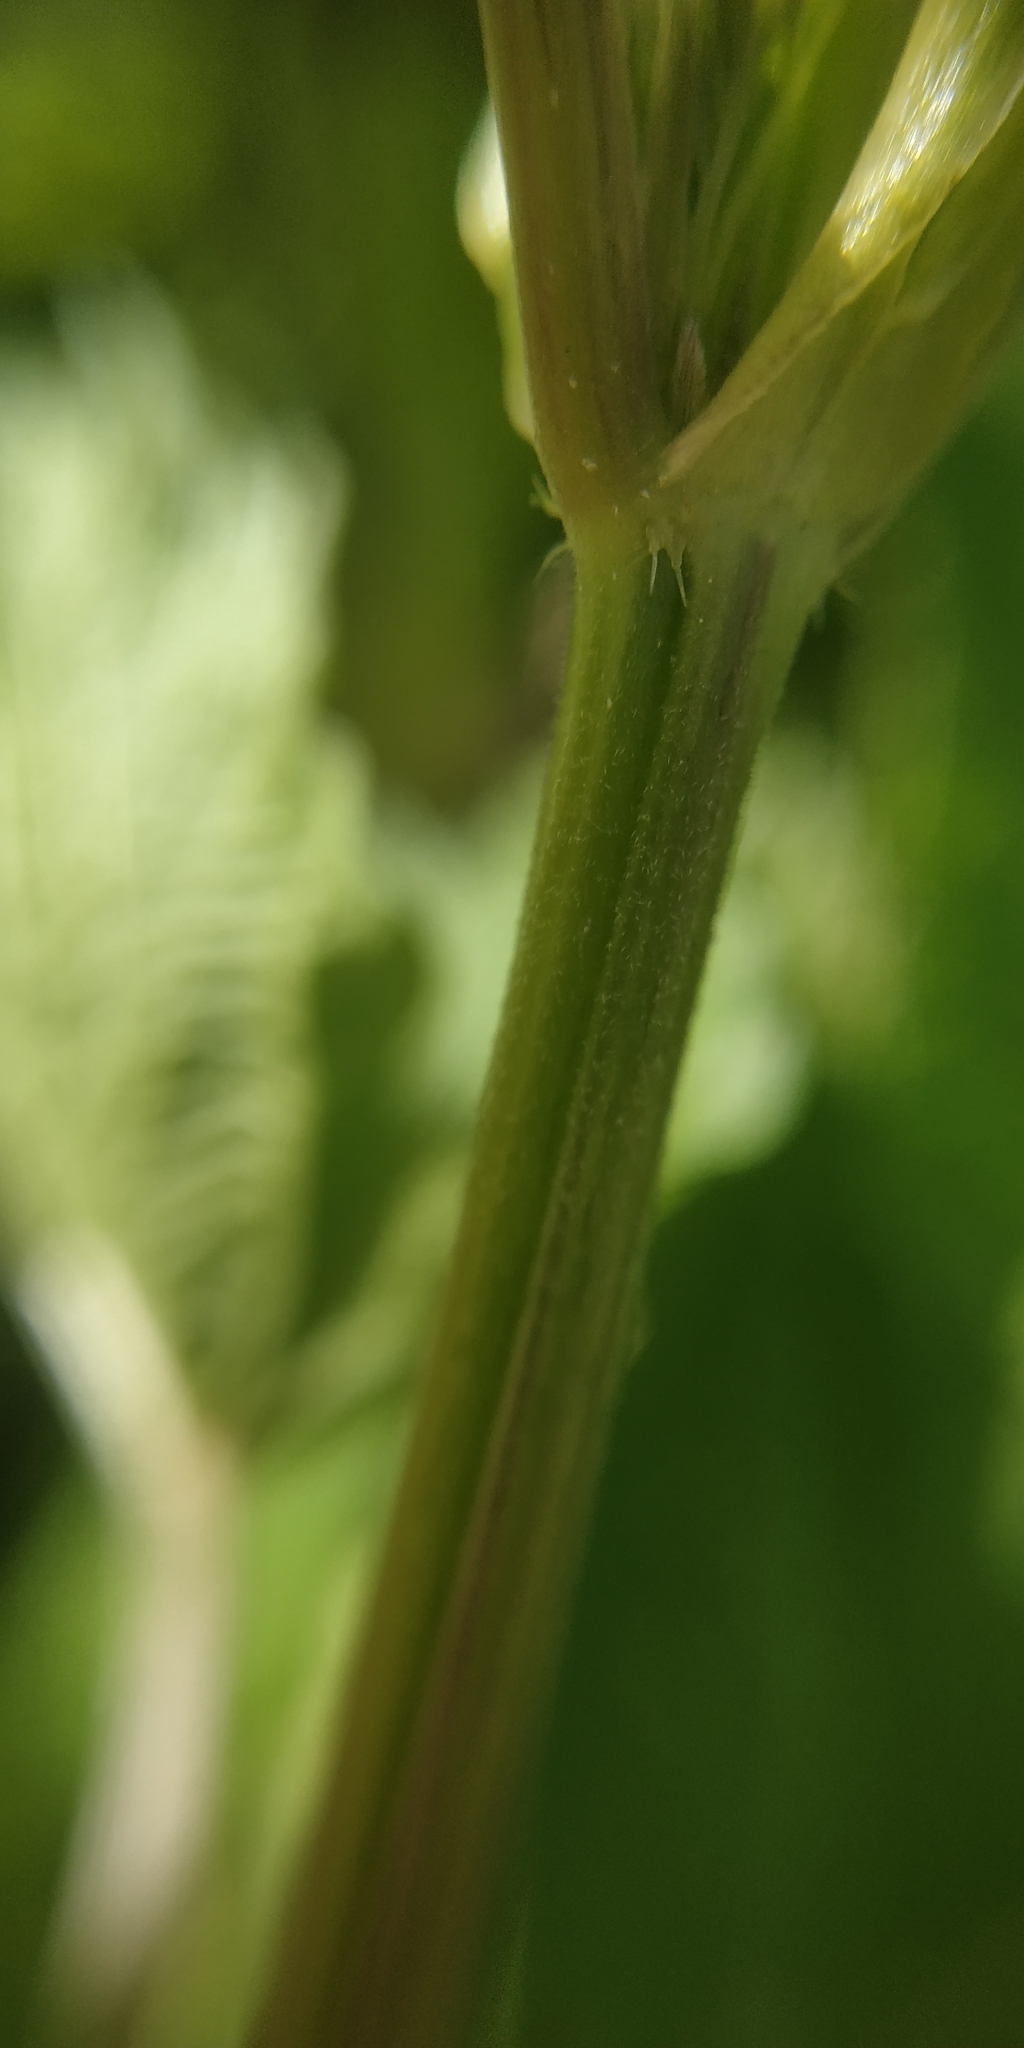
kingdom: Plantae
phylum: Tracheophyta
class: Magnoliopsida
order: Rosales
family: Urticaceae
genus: Urtica
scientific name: Urtica galeopsifolia
